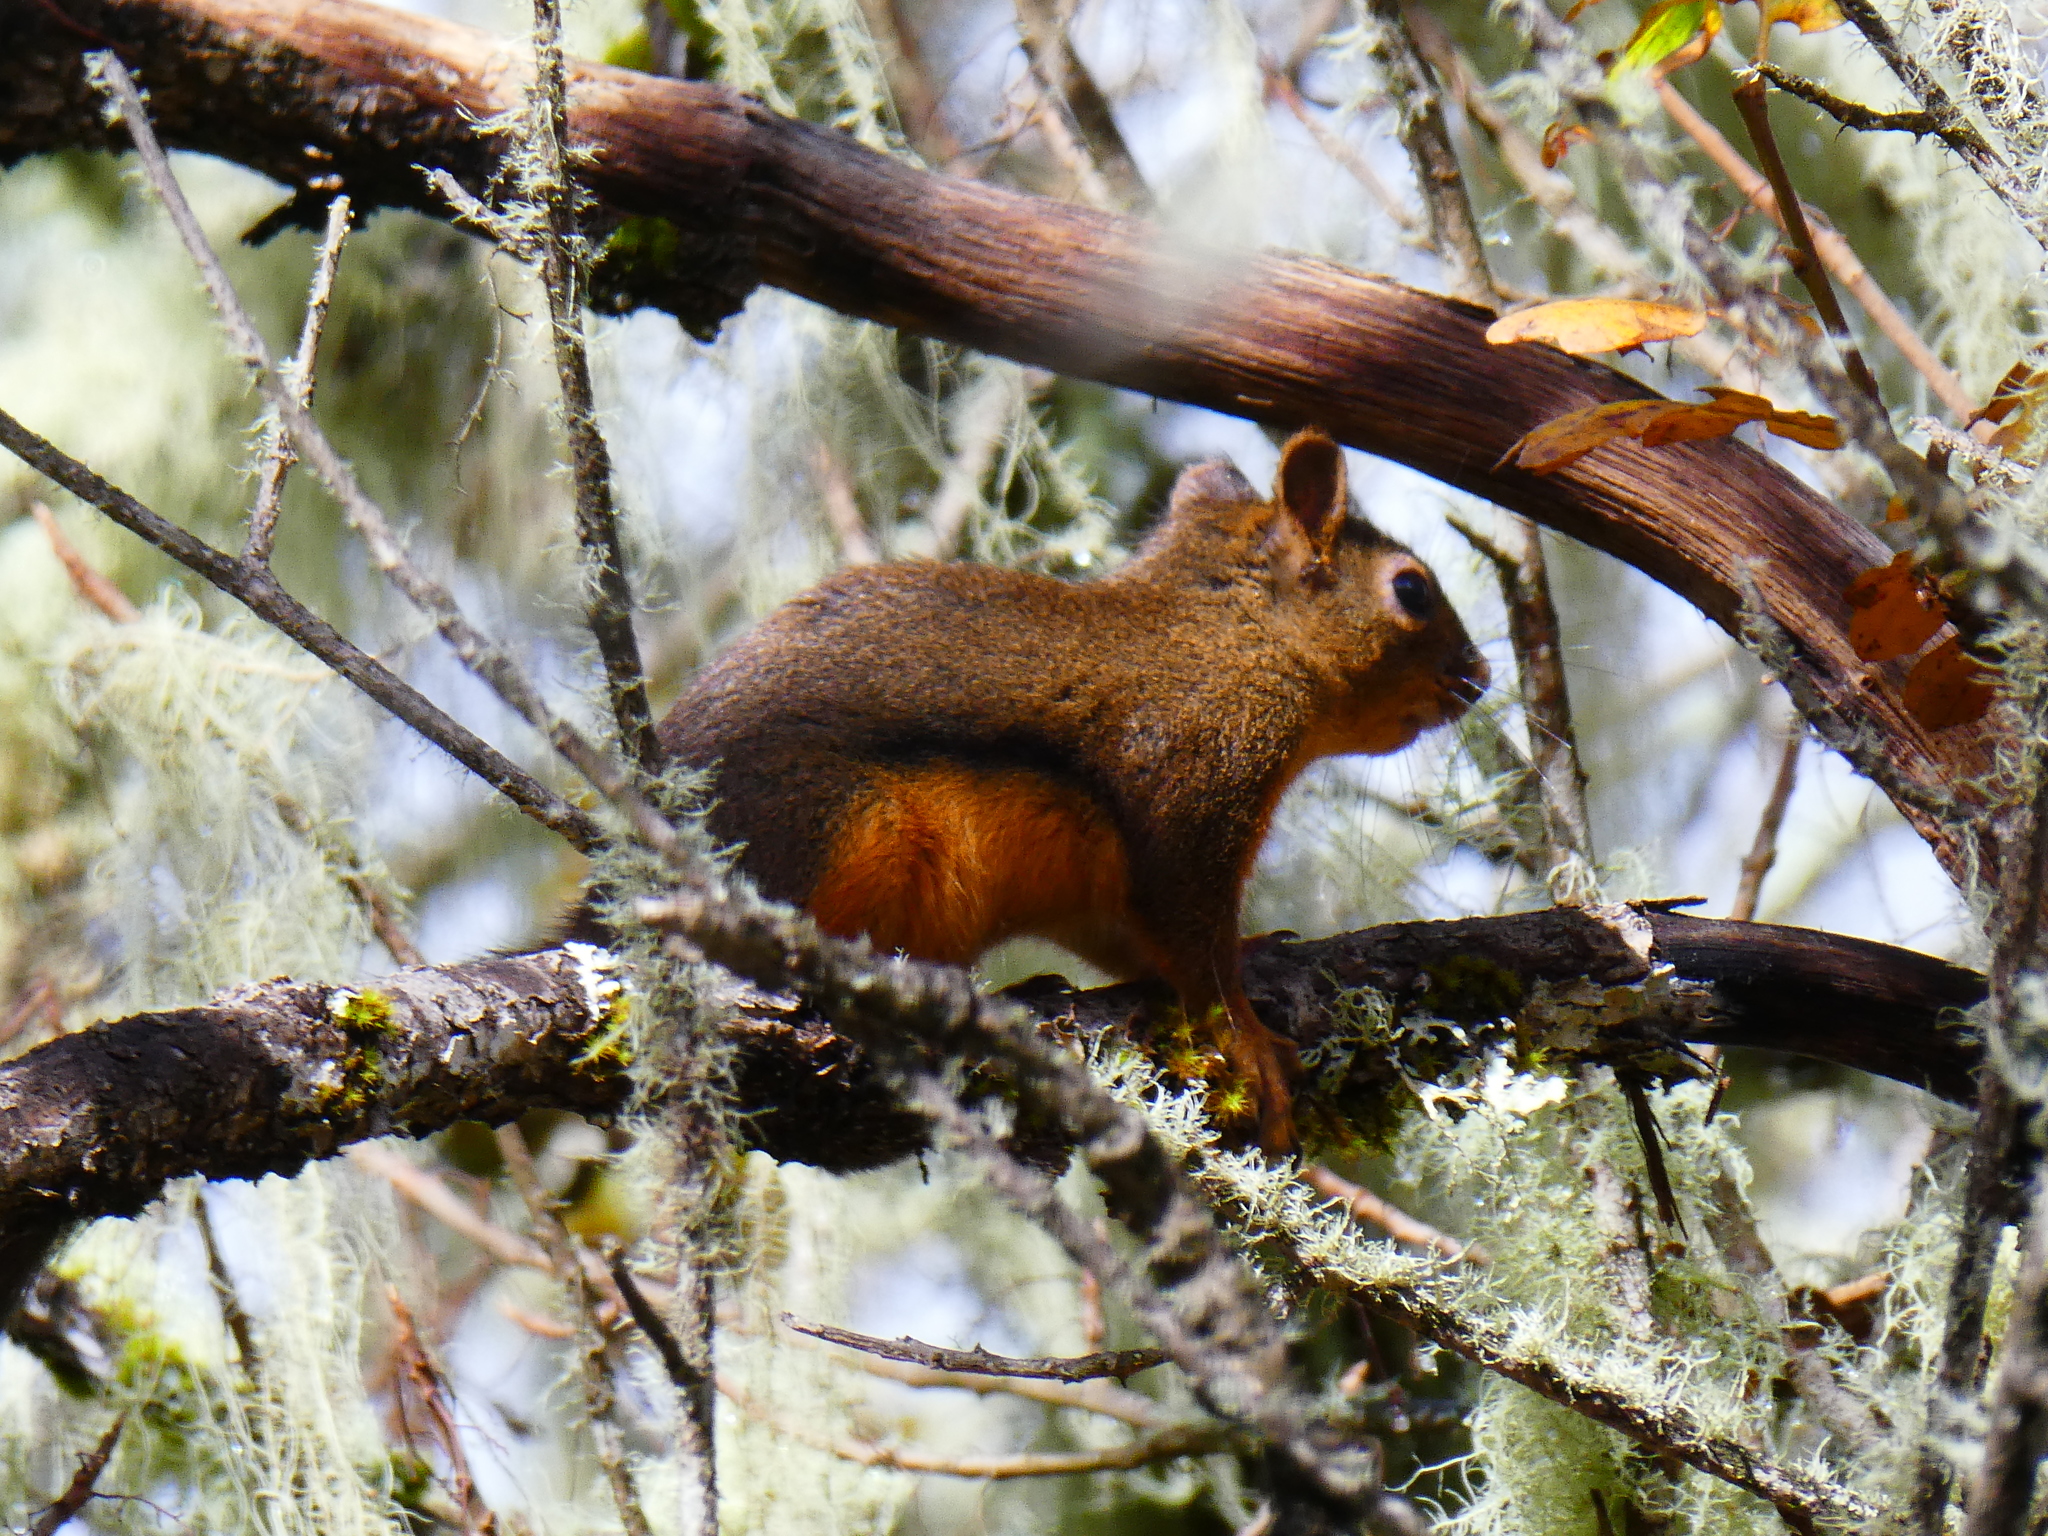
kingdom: Animalia
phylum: Chordata
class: Mammalia
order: Rodentia
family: Sciuridae
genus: Tamiasciurus
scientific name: Tamiasciurus douglasii
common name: Douglas's squirrel
